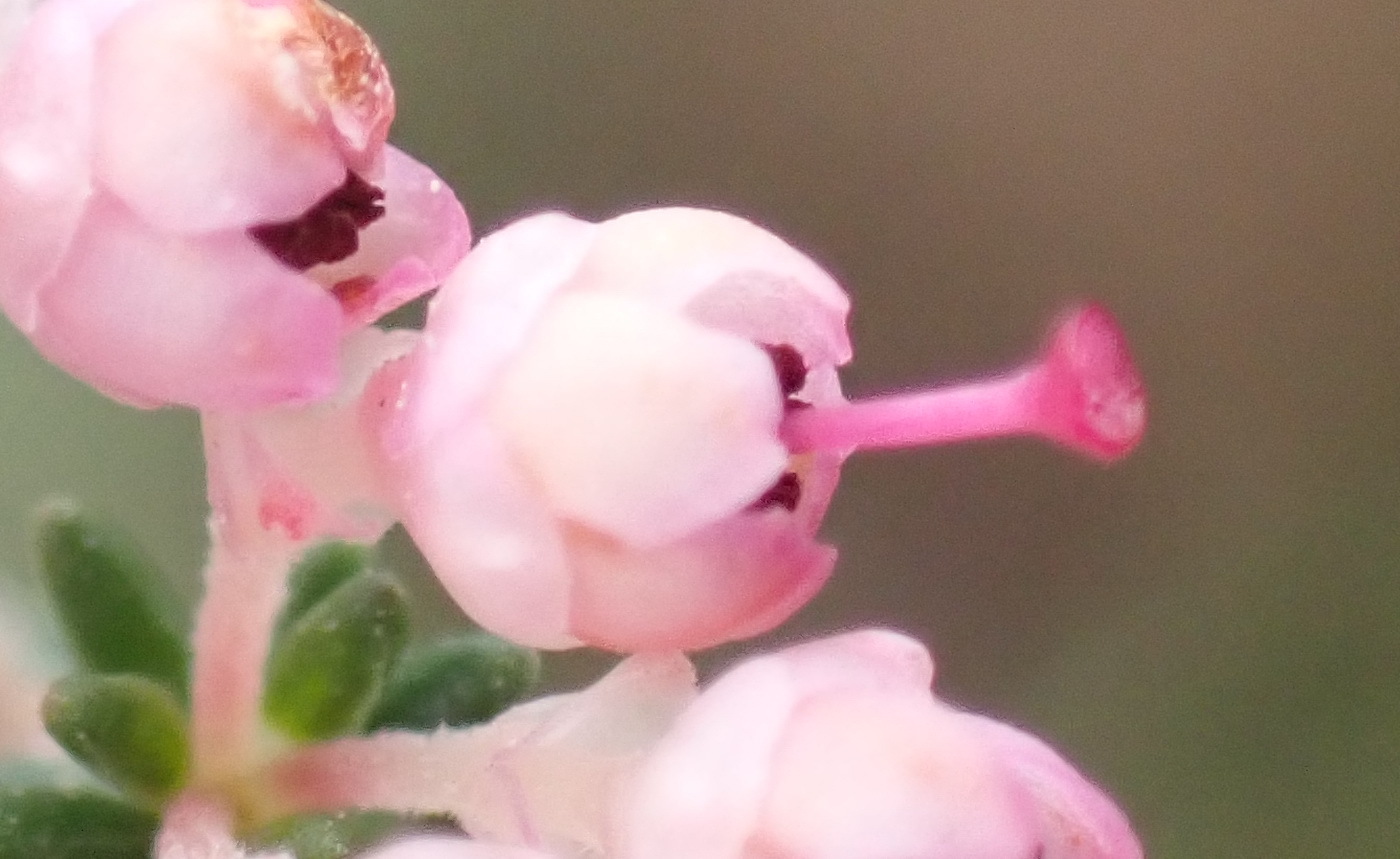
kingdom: Plantae
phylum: Tracheophyta
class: Magnoliopsida
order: Ericales
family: Ericaceae
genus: Erica
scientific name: Erica sparsa
